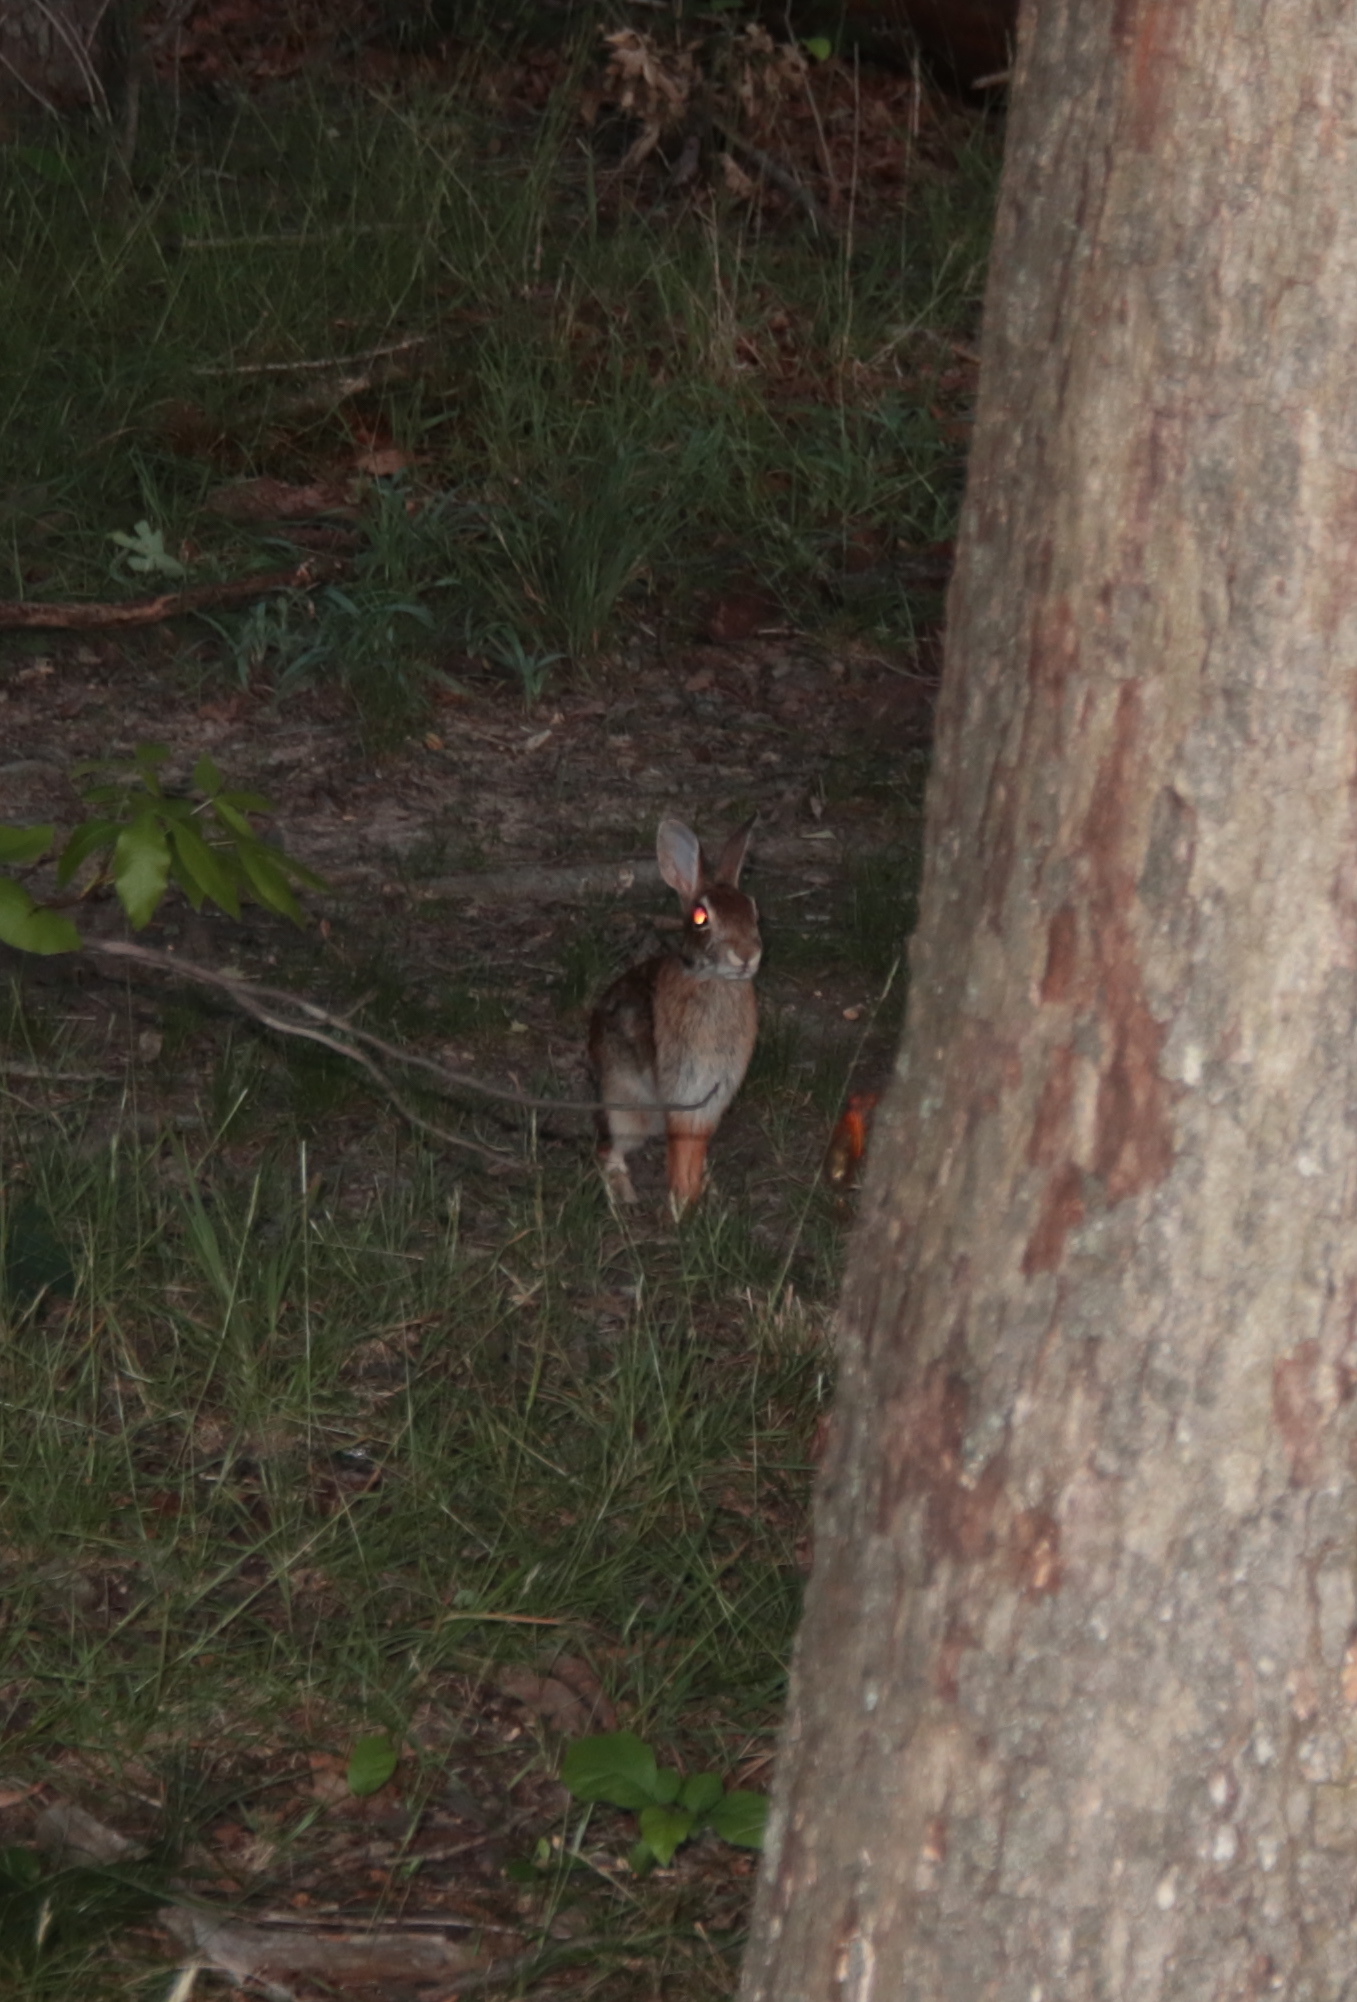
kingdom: Animalia
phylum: Chordata
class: Mammalia
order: Lagomorpha
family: Leporidae
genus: Sylvilagus
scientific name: Sylvilagus floridanus
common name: Eastern cottontail
